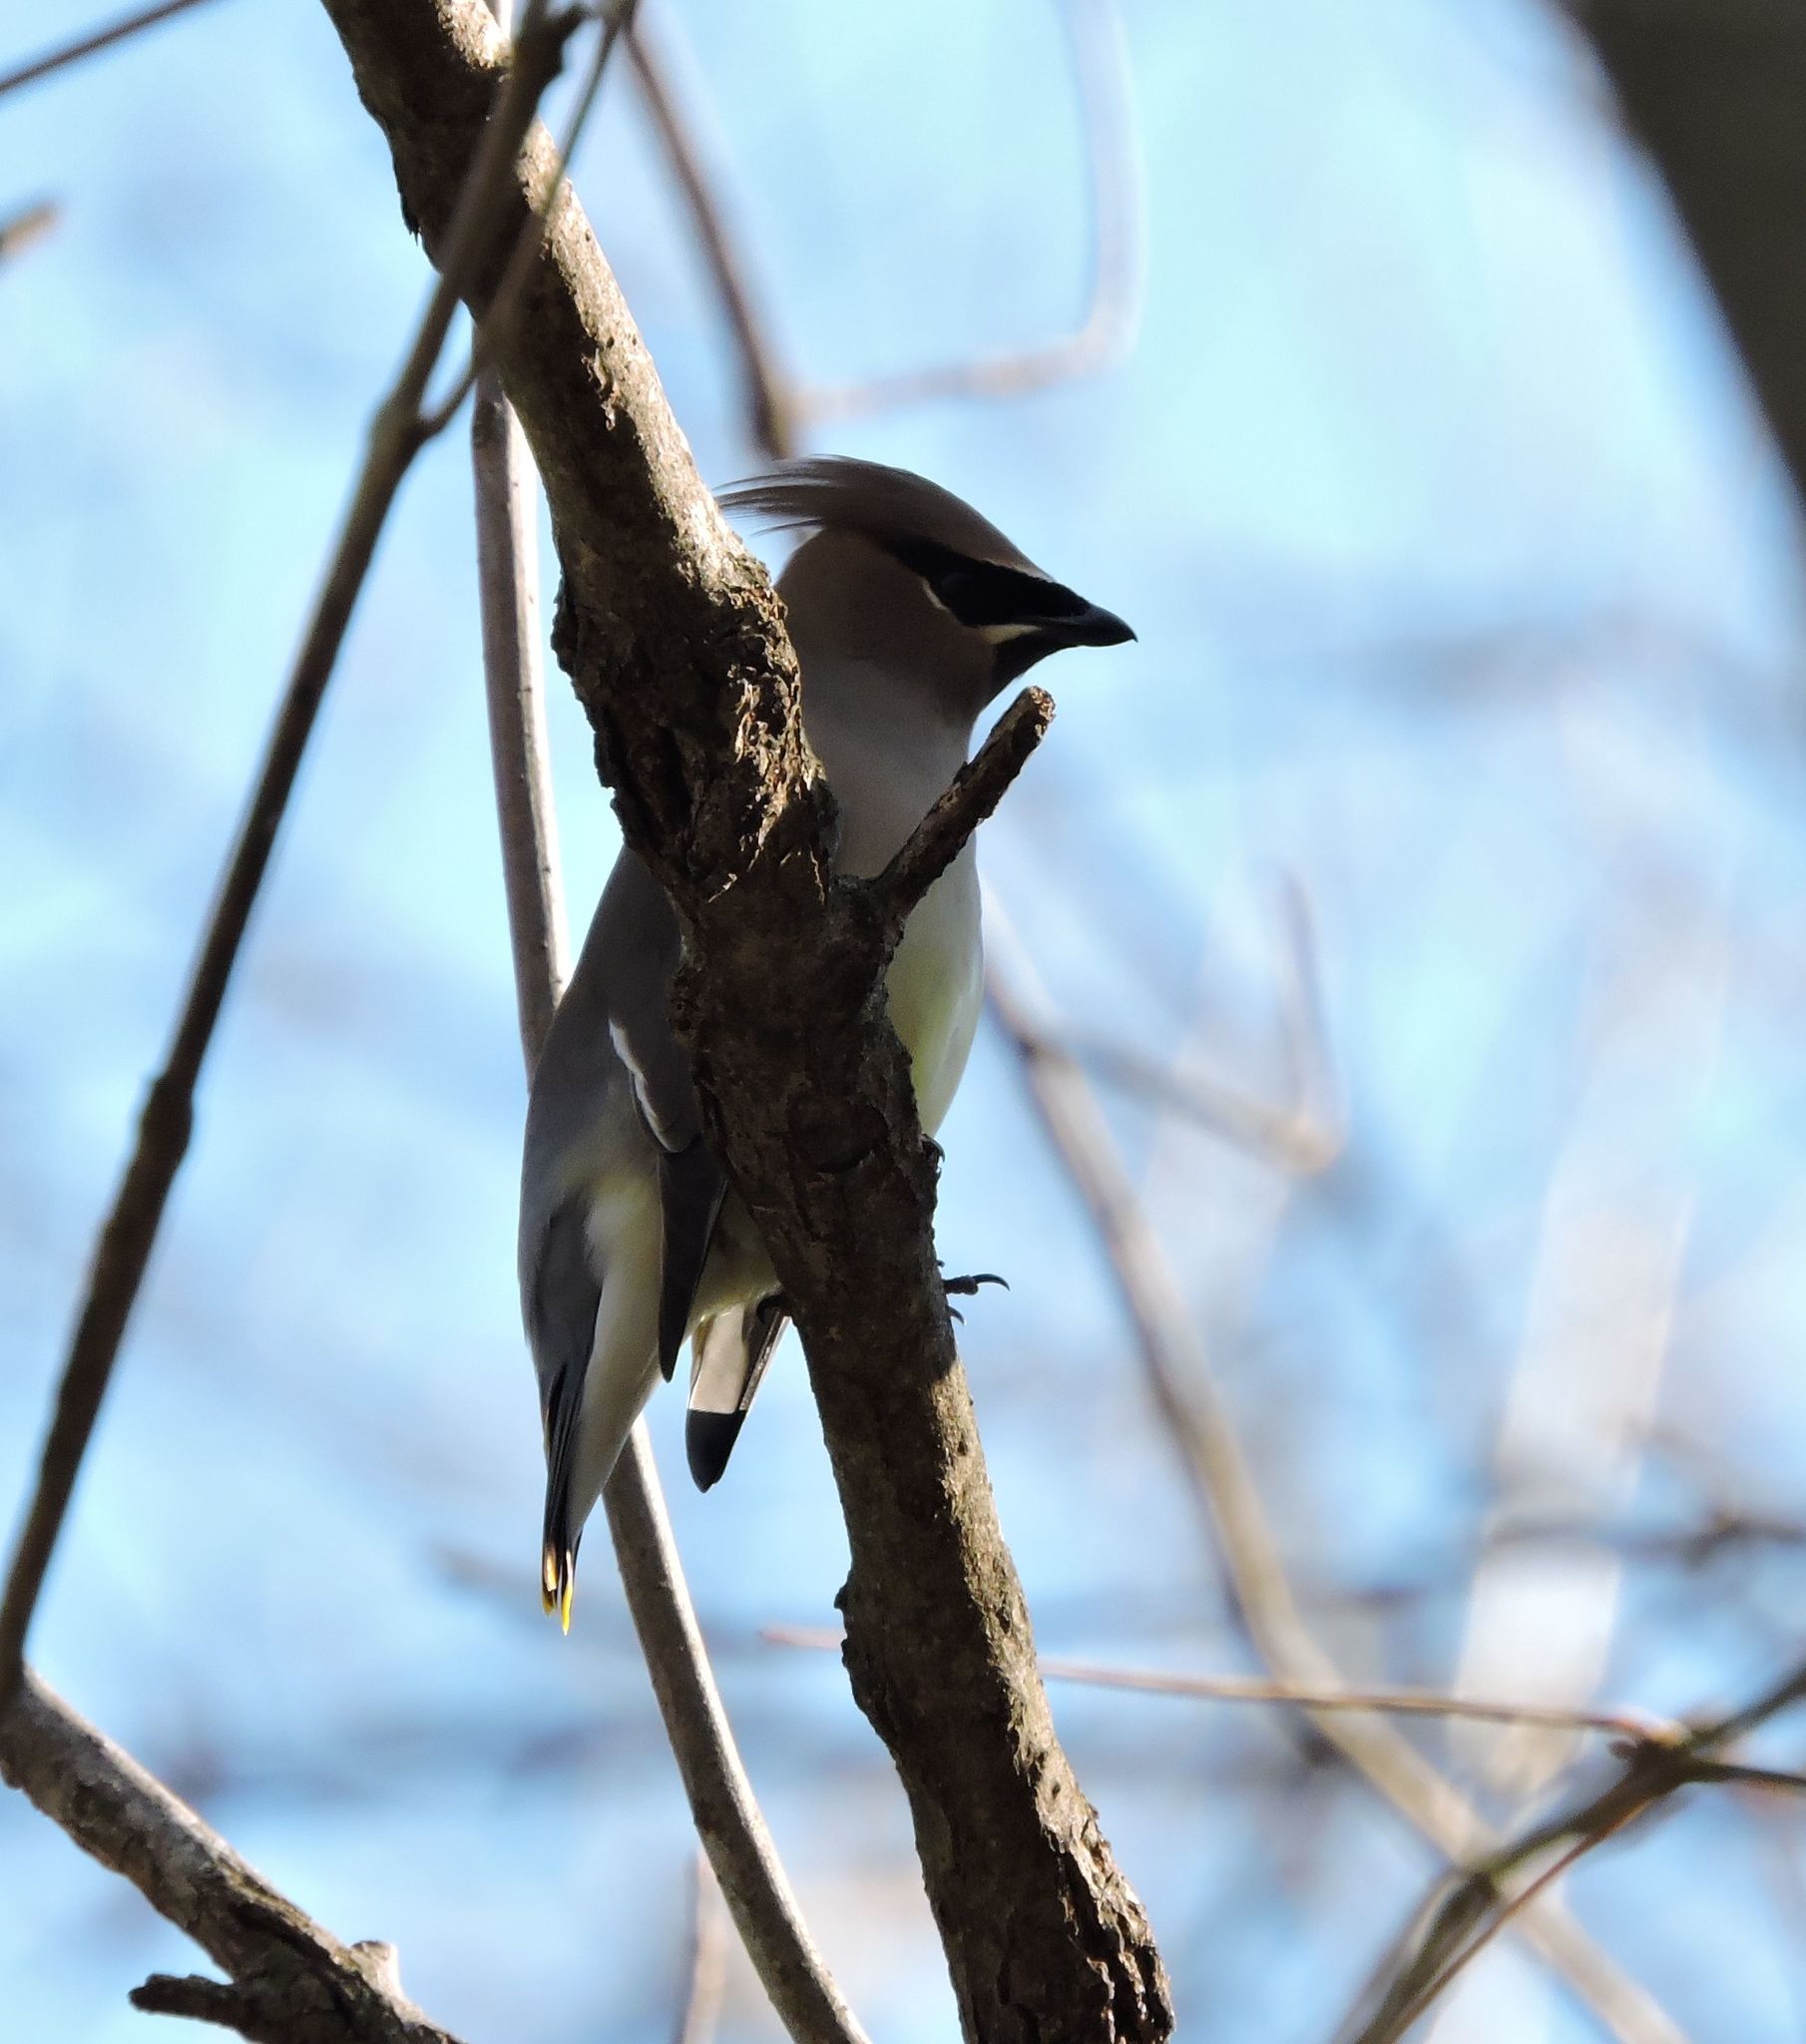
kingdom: Animalia
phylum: Chordata
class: Aves
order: Passeriformes
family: Bombycillidae
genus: Bombycilla
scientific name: Bombycilla cedrorum
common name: Cedar waxwing
